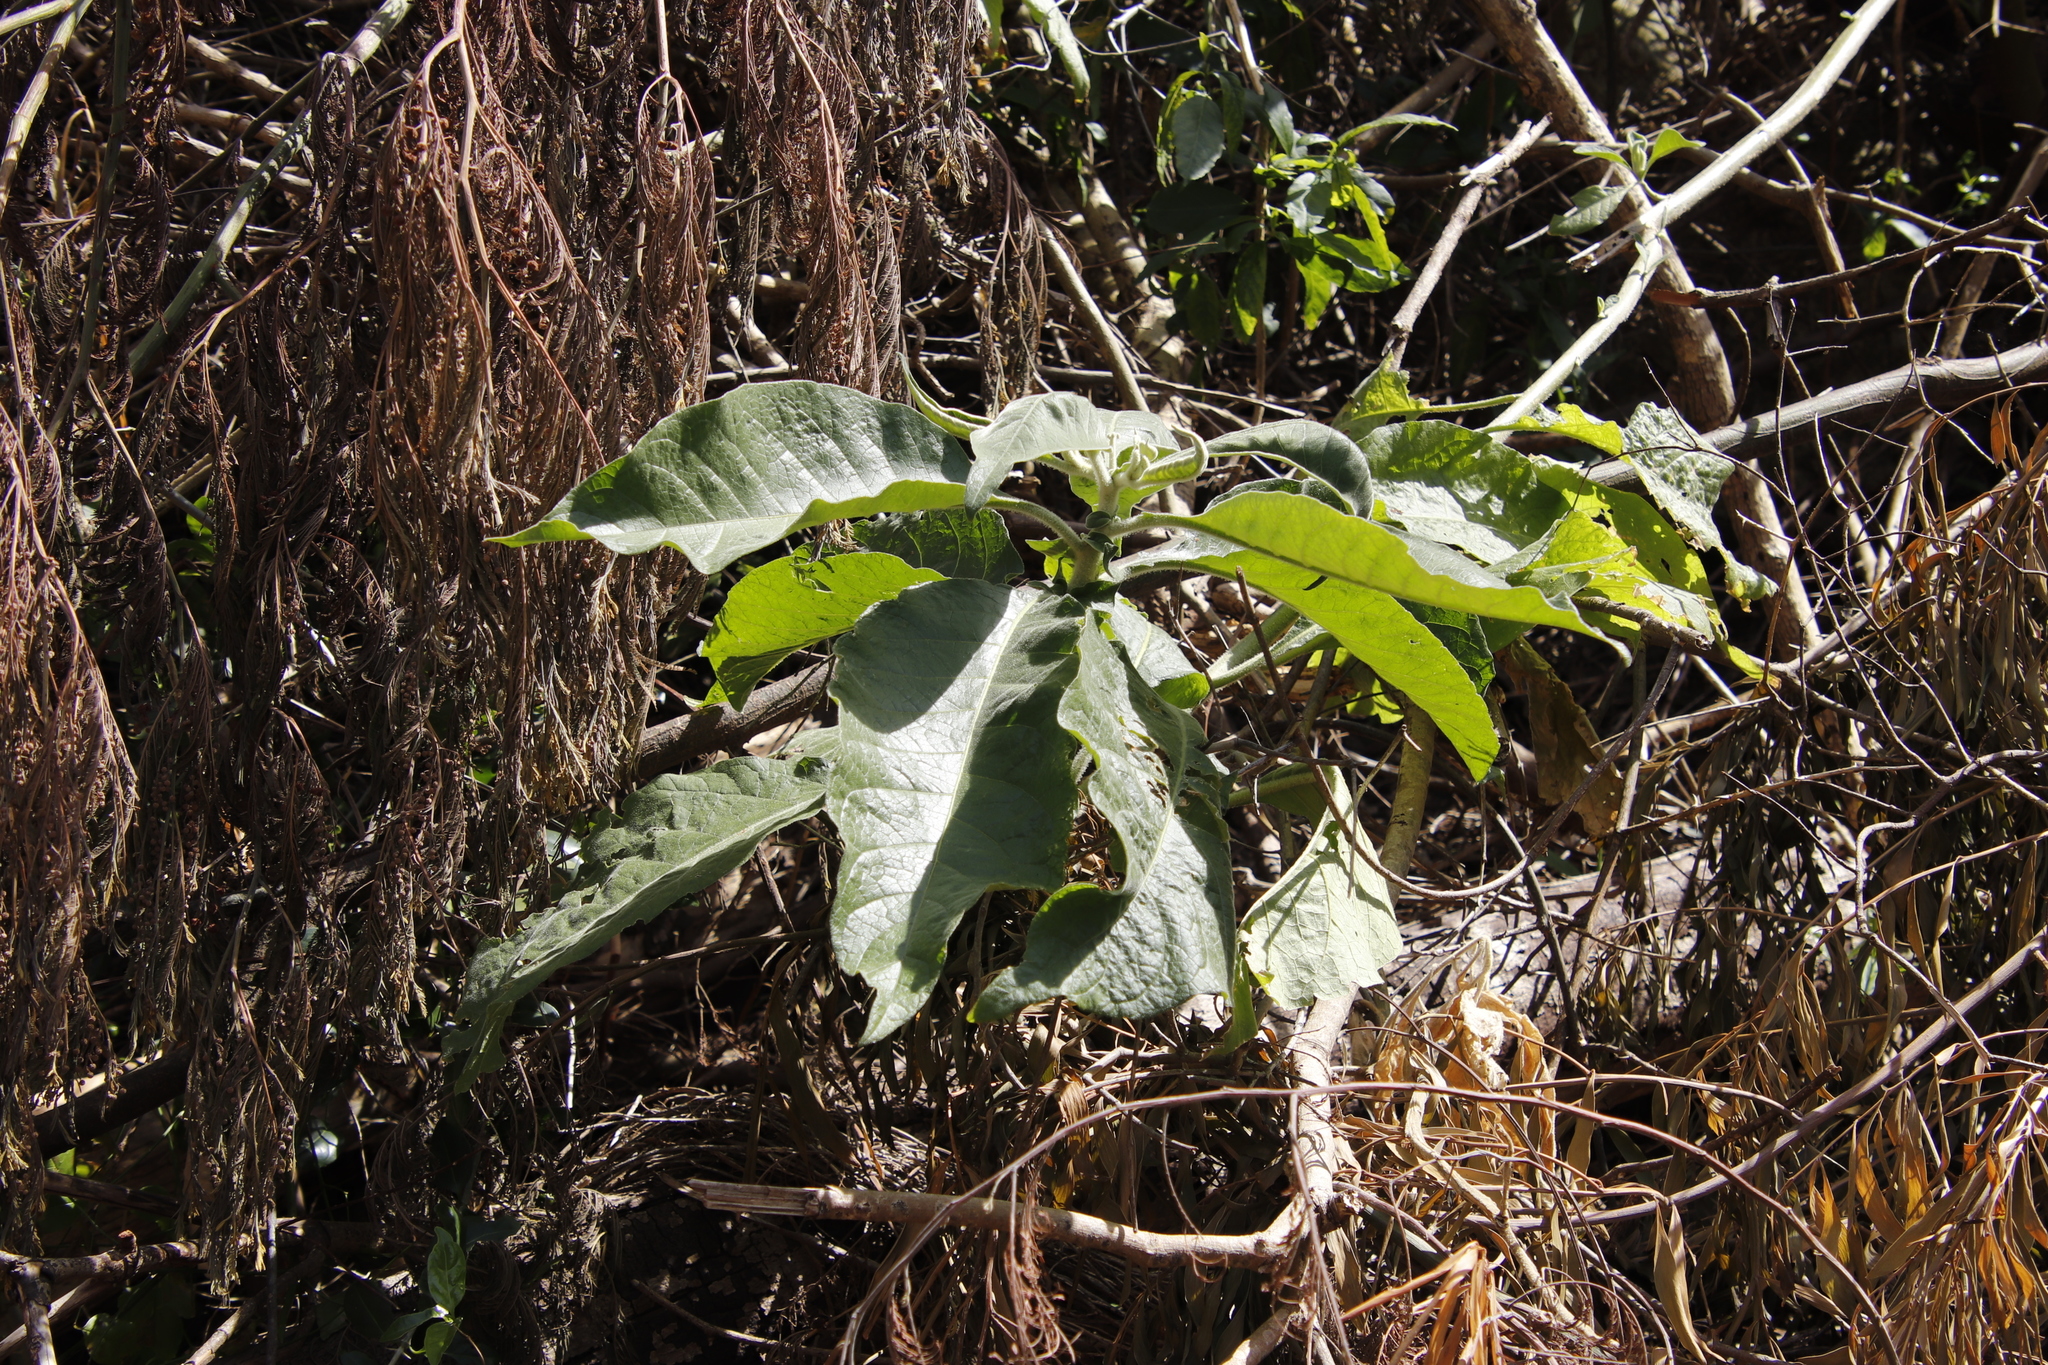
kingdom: Plantae
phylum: Tracheophyta
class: Magnoliopsida
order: Solanales
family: Solanaceae
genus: Solanum
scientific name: Solanum mauritianum
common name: Earleaf nightshade
